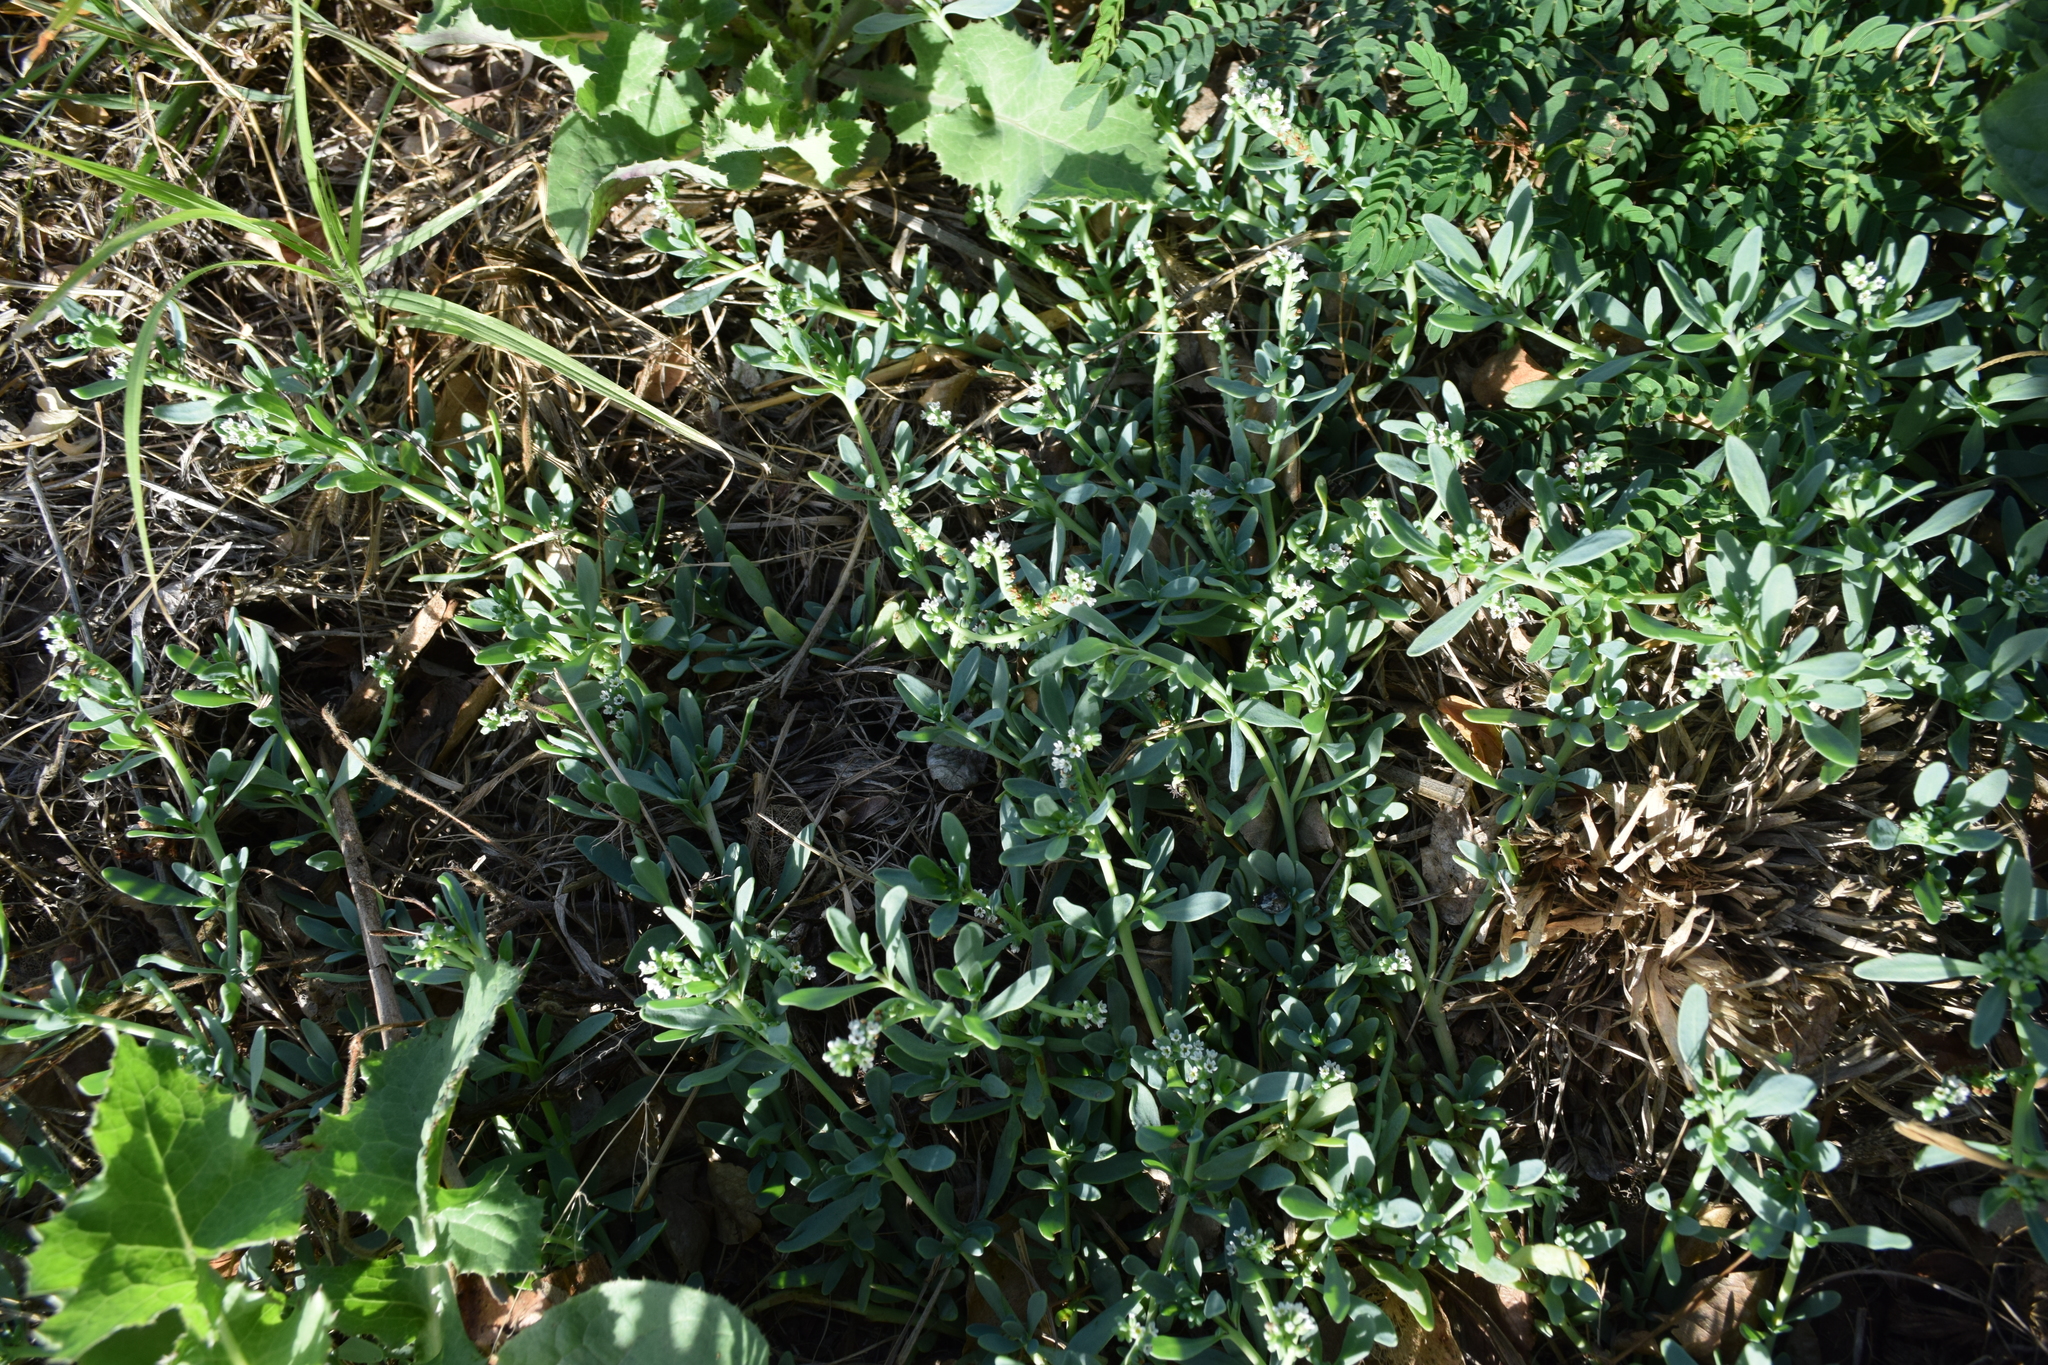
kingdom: Plantae
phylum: Tracheophyta
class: Magnoliopsida
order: Boraginales
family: Heliotropiaceae
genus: Heliotropium
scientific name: Heliotropium curassavicum
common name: Seaside heliotrope
